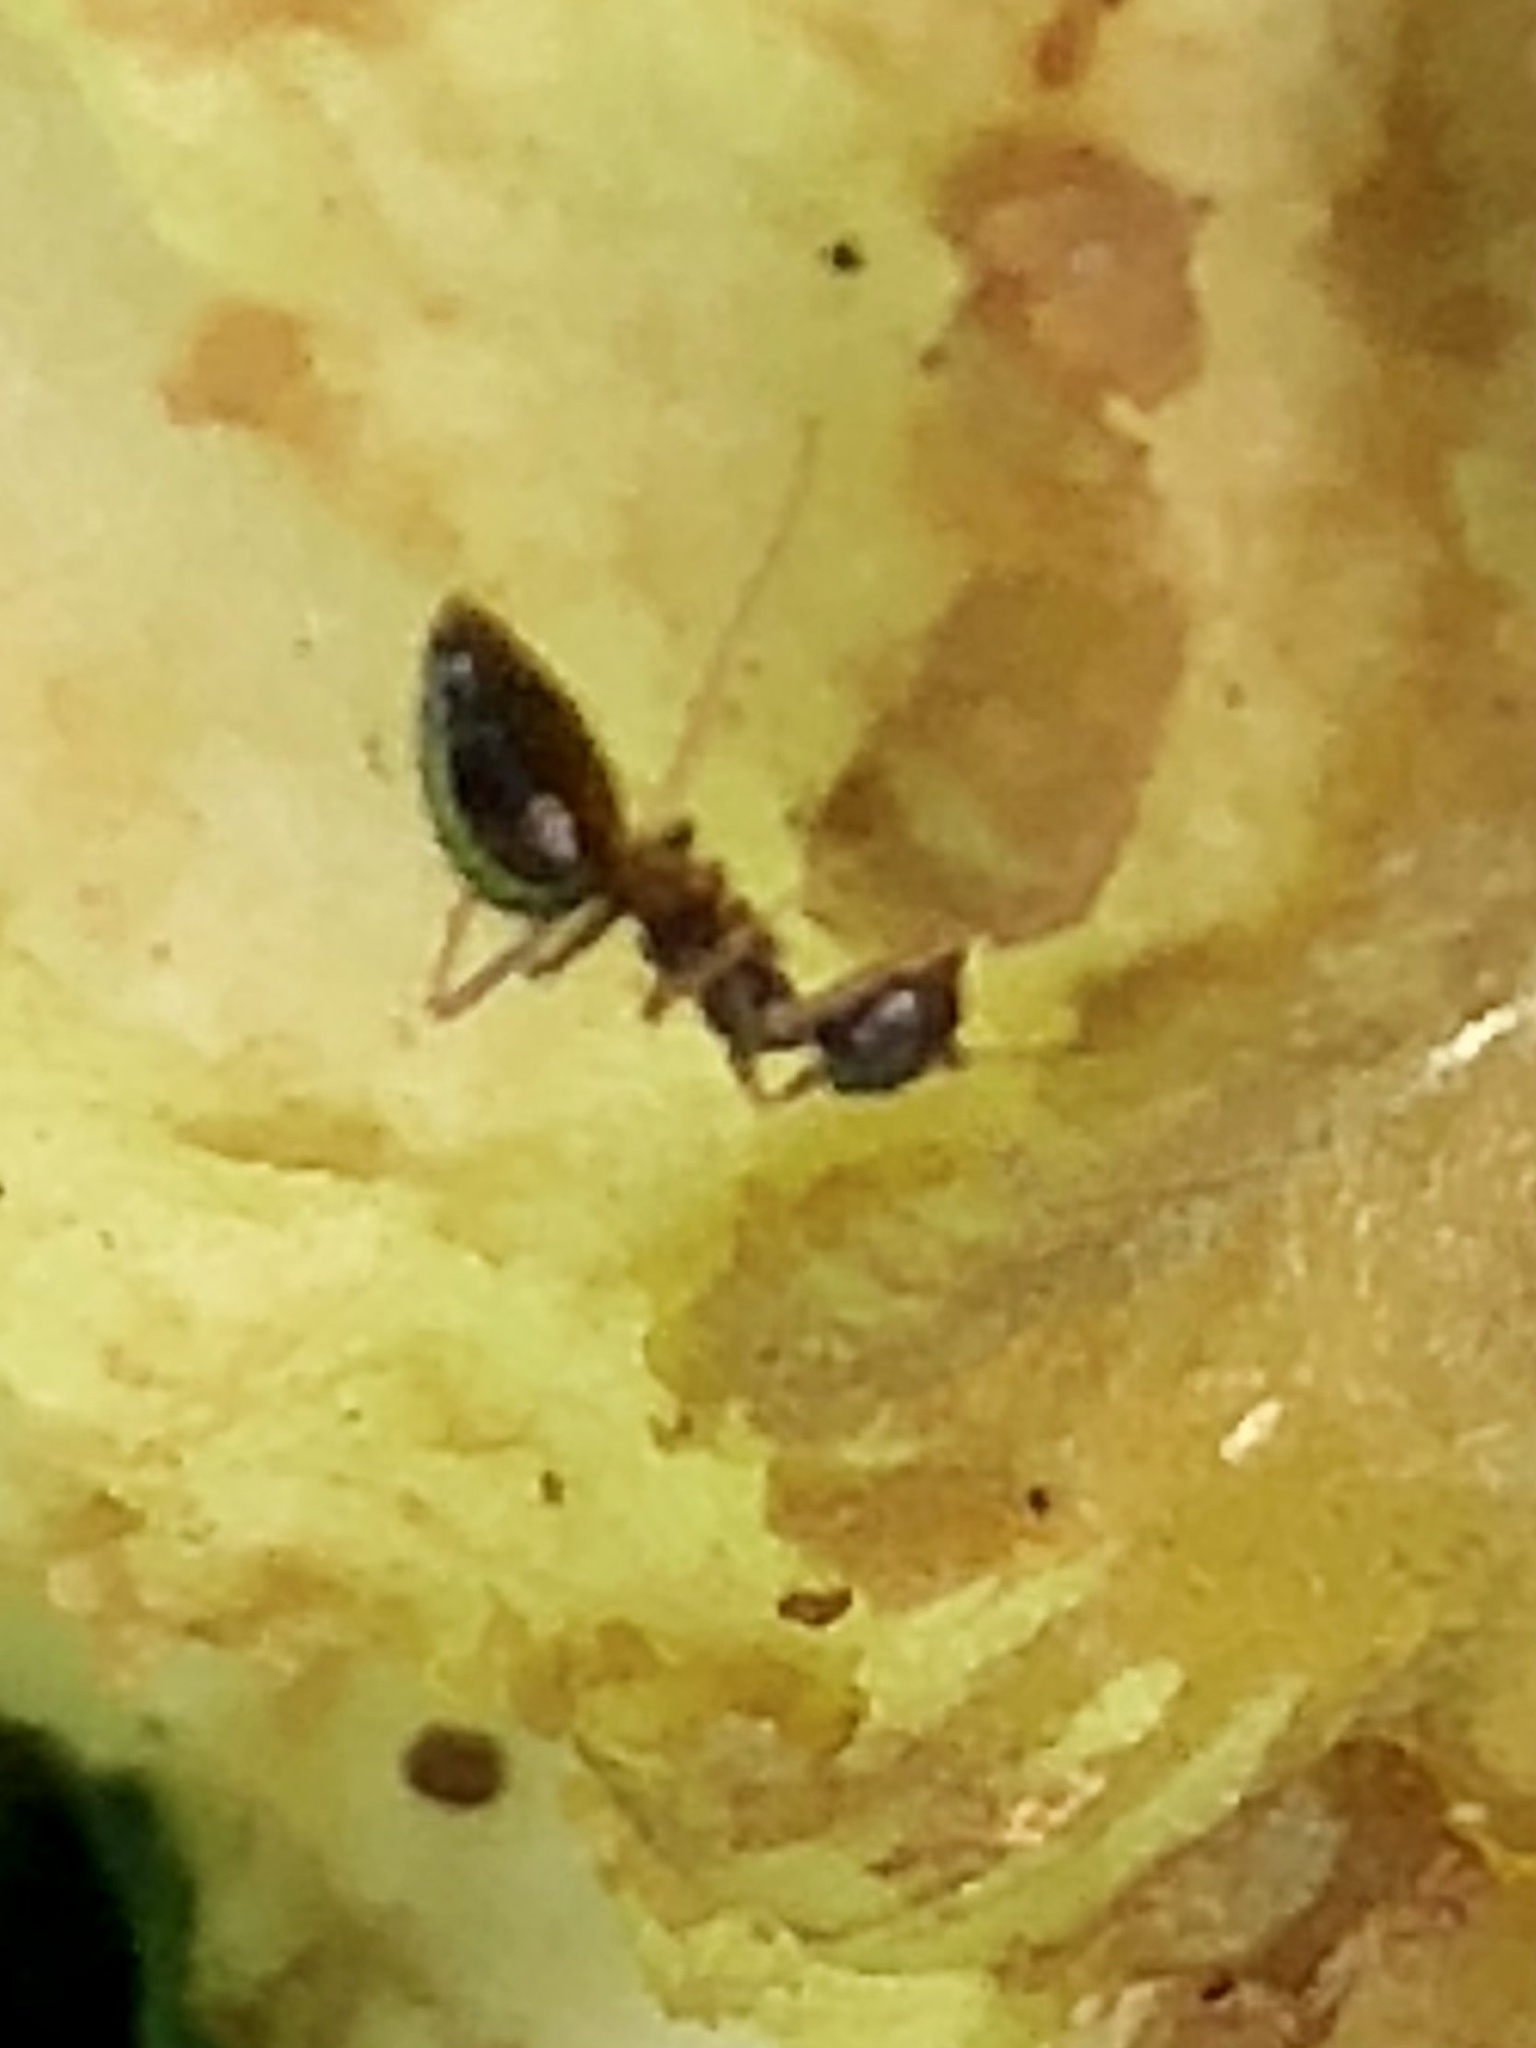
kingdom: Animalia
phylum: Arthropoda
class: Insecta
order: Hymenoptera
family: Formicidae
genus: Prenolepis
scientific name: Prenolepis imparis
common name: Small honey ant
